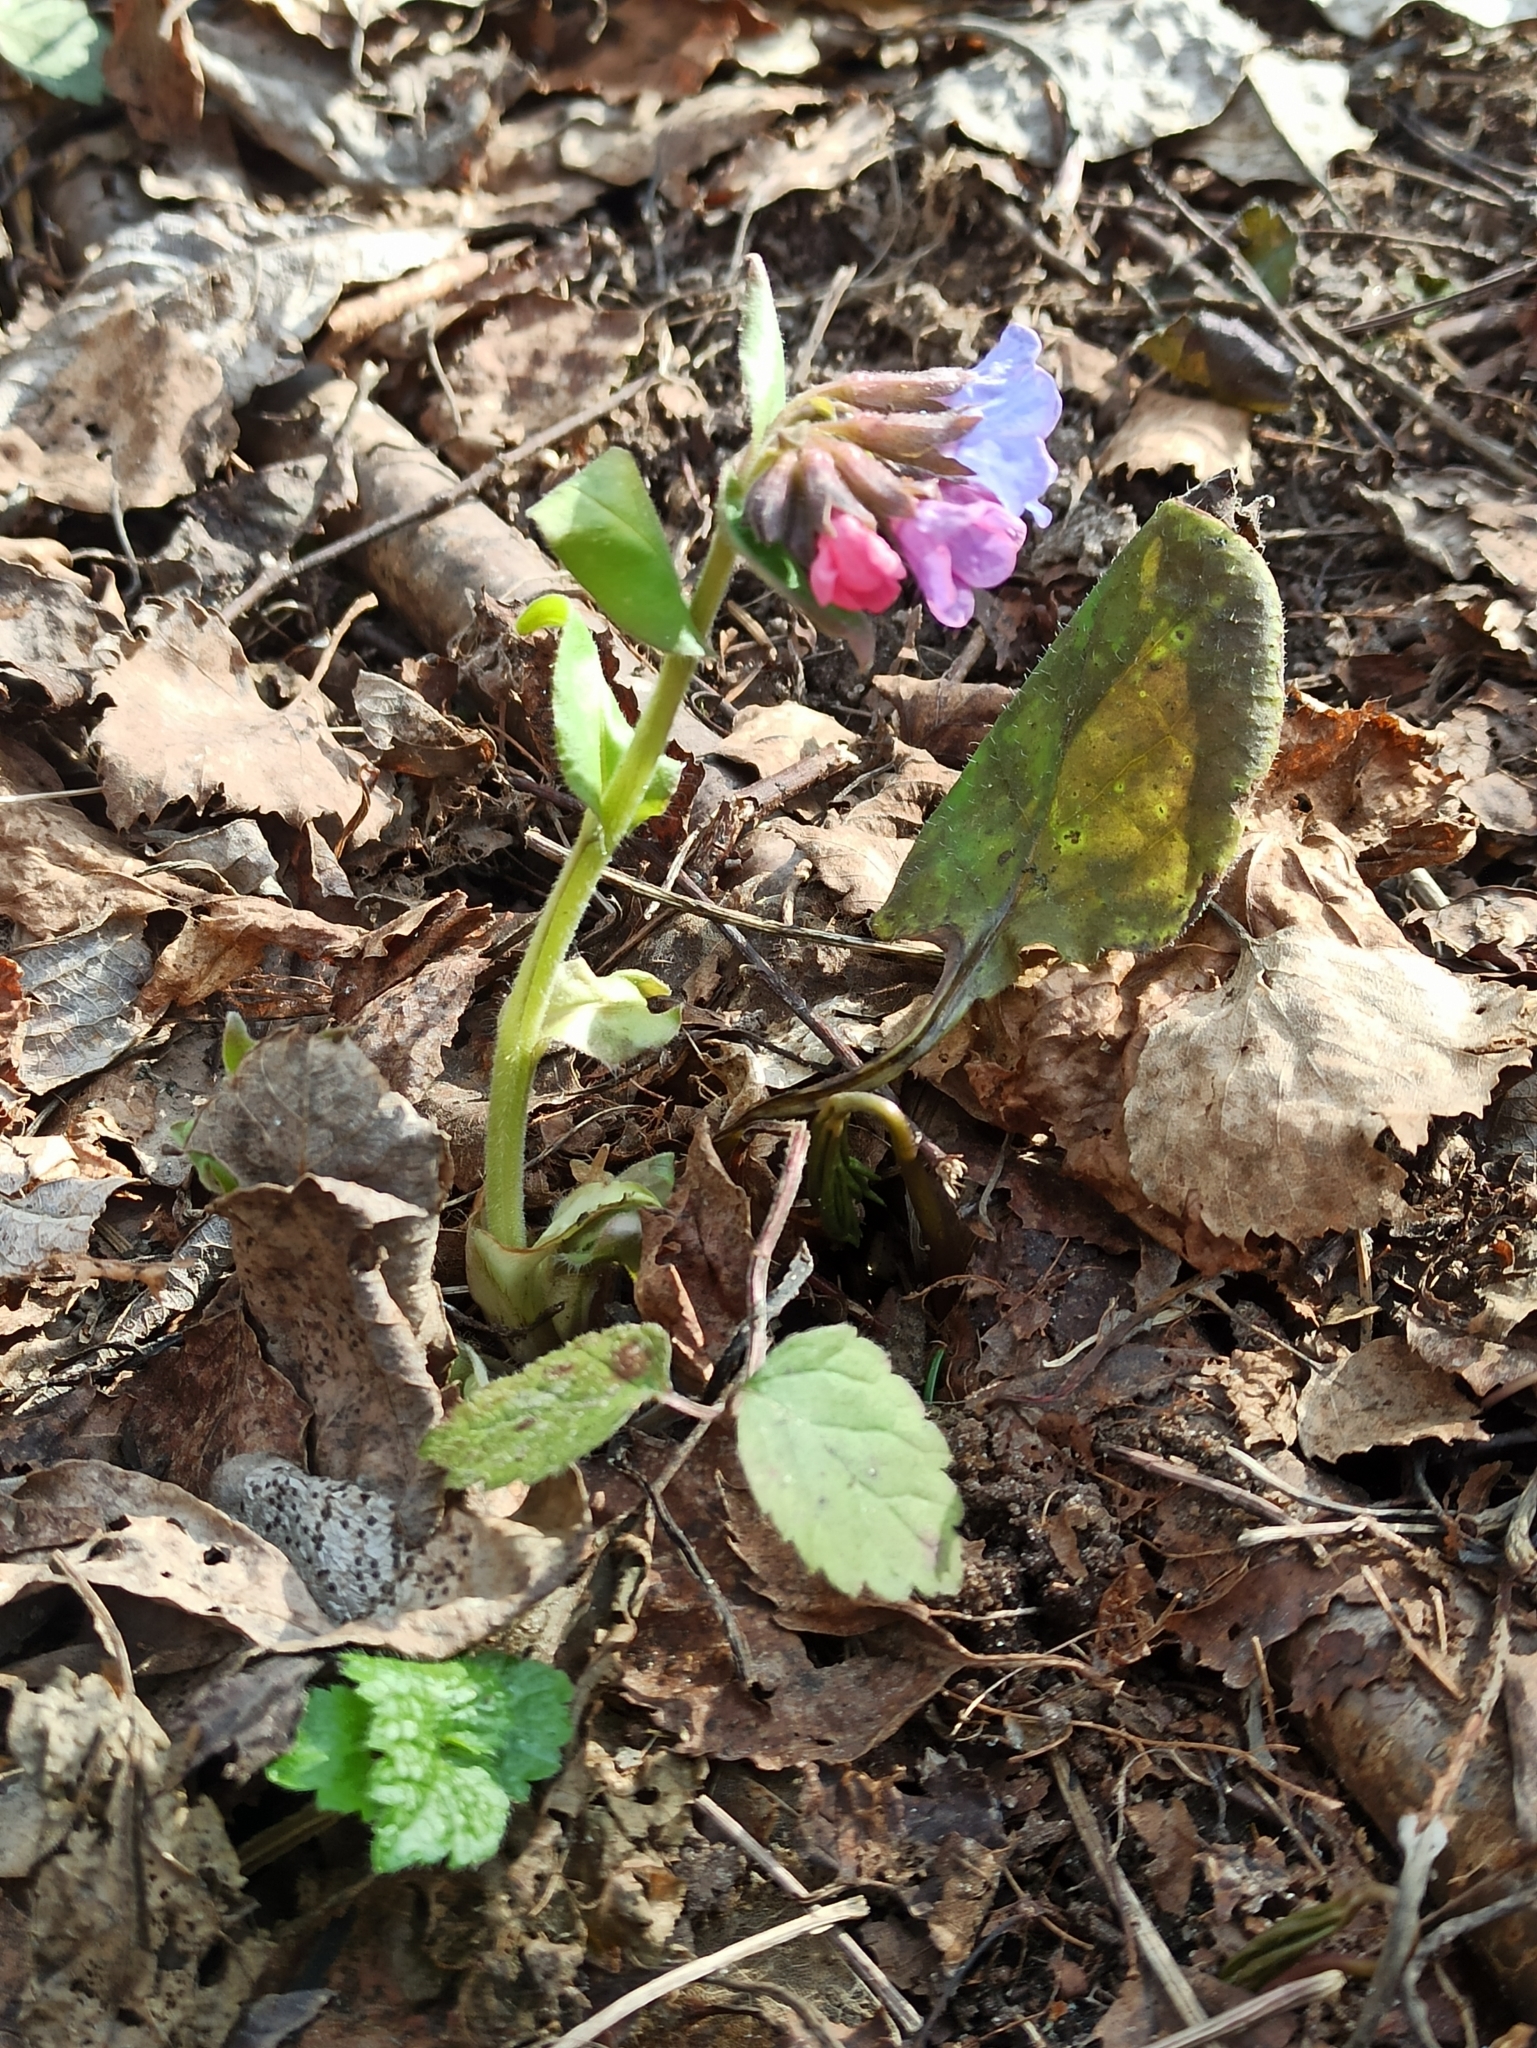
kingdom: Plantae
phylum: Tracheophyta
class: Magnoliopsida
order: Boraginales
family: Boraginaceae
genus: Pulmonaria
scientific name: Pulmonaria obscura
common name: Suffolk lungwort
